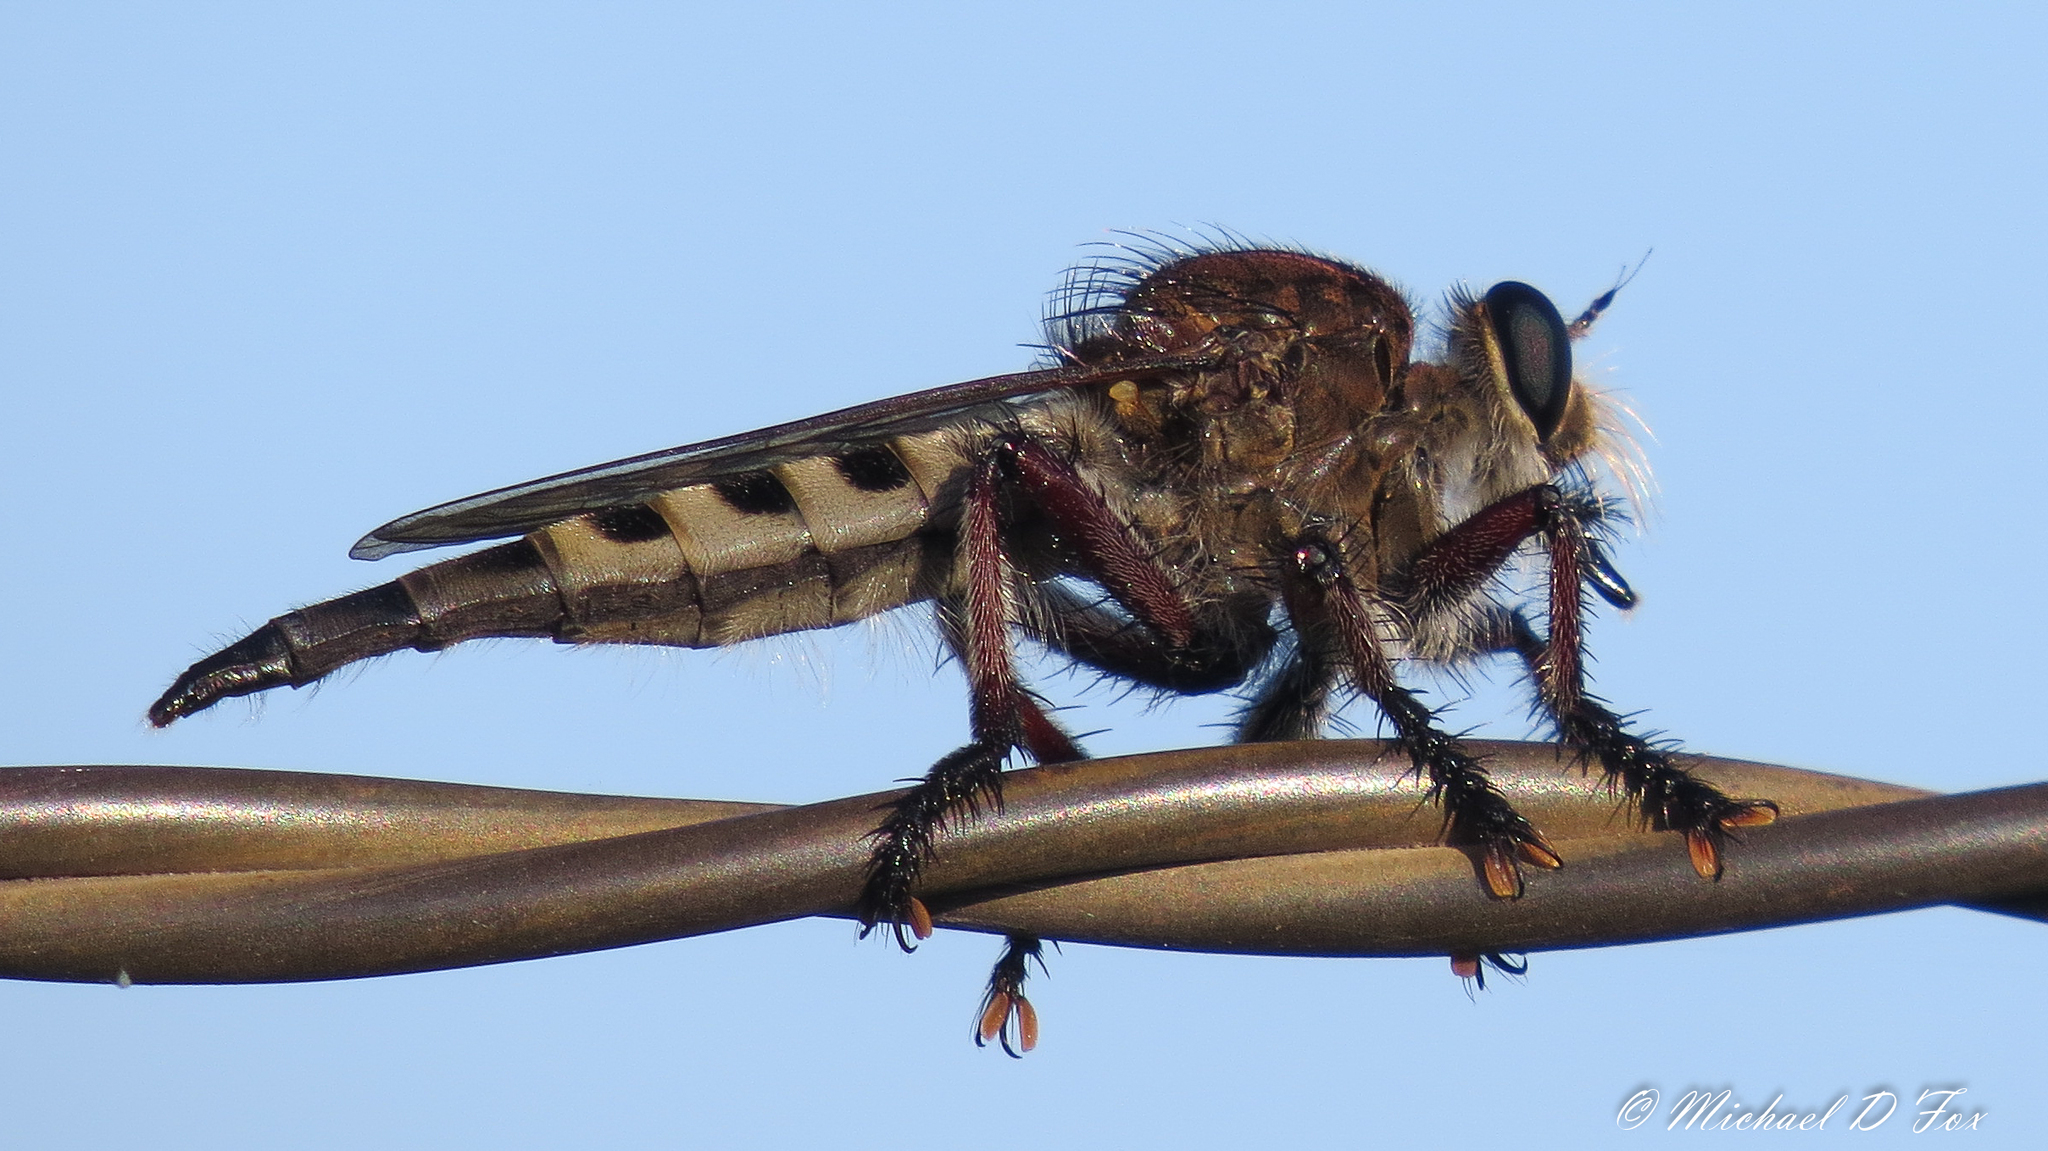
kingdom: Animalia
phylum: Arthropoda
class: Insecta
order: Diptera
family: Asilidae
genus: Promachus
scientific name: Promachus hinei
